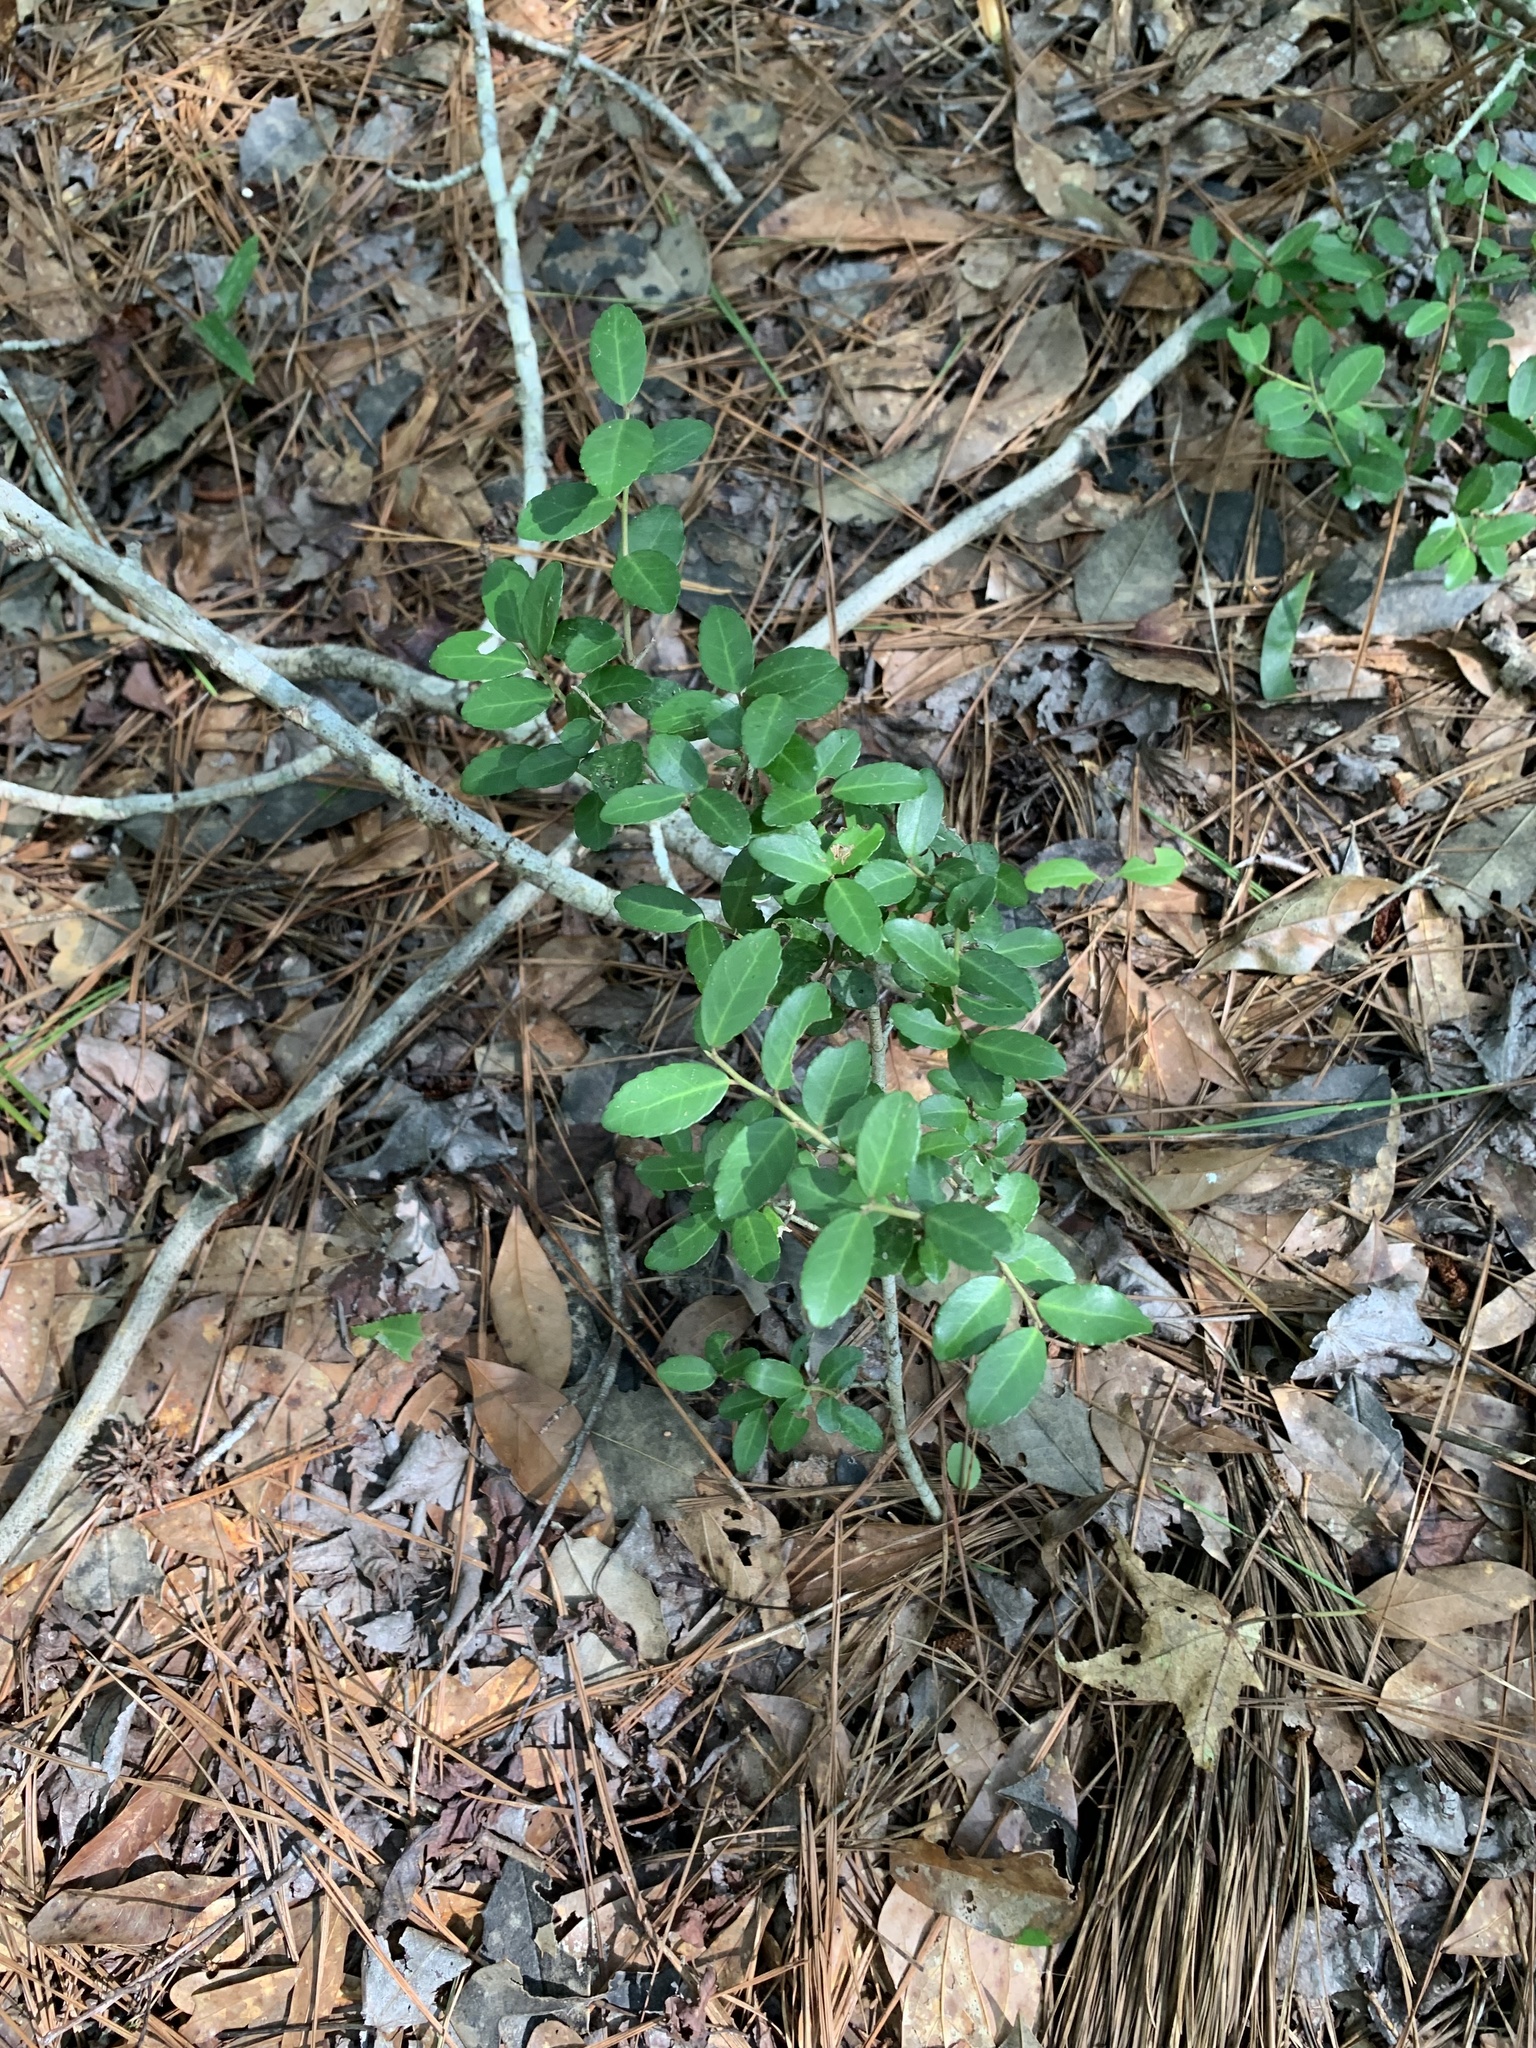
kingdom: Plantae
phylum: Tracheophyta
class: Magnoliopsida
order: Aquifoliales
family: Aquifoliaceae
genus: Ilex
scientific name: Ilex vomitoria
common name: Yaupon holly
